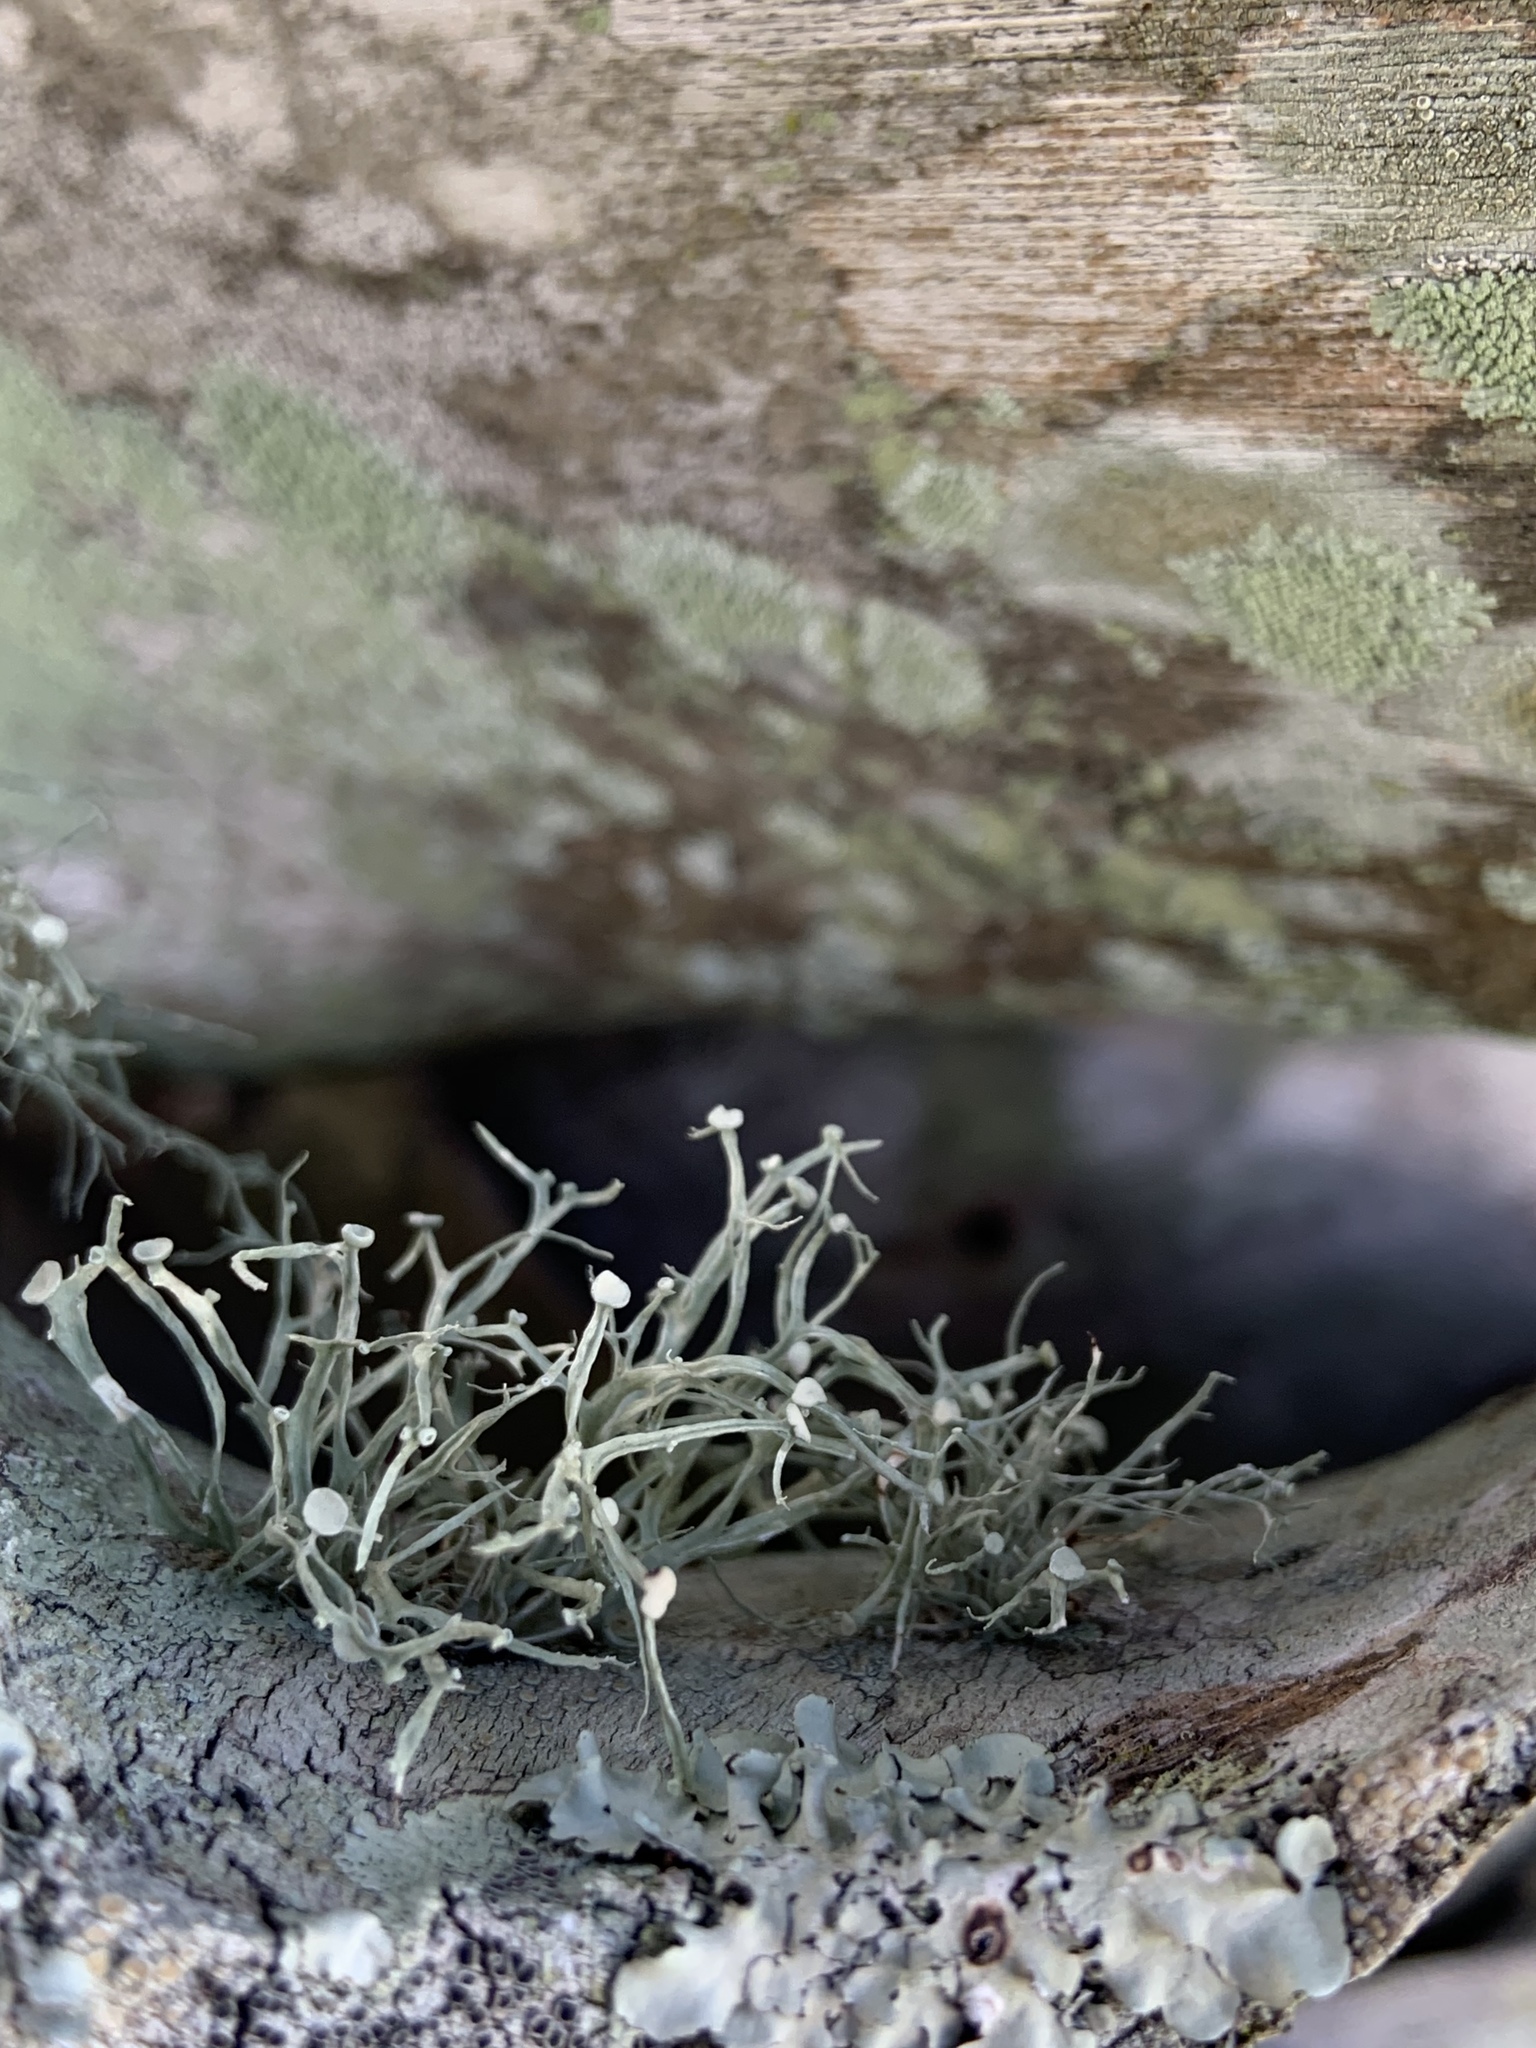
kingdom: Fungi
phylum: Ascomycota
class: Lecanoromycetes
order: Lecanorales
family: Ramalinaceae
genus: Ramalina
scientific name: Ramalina stenospora
